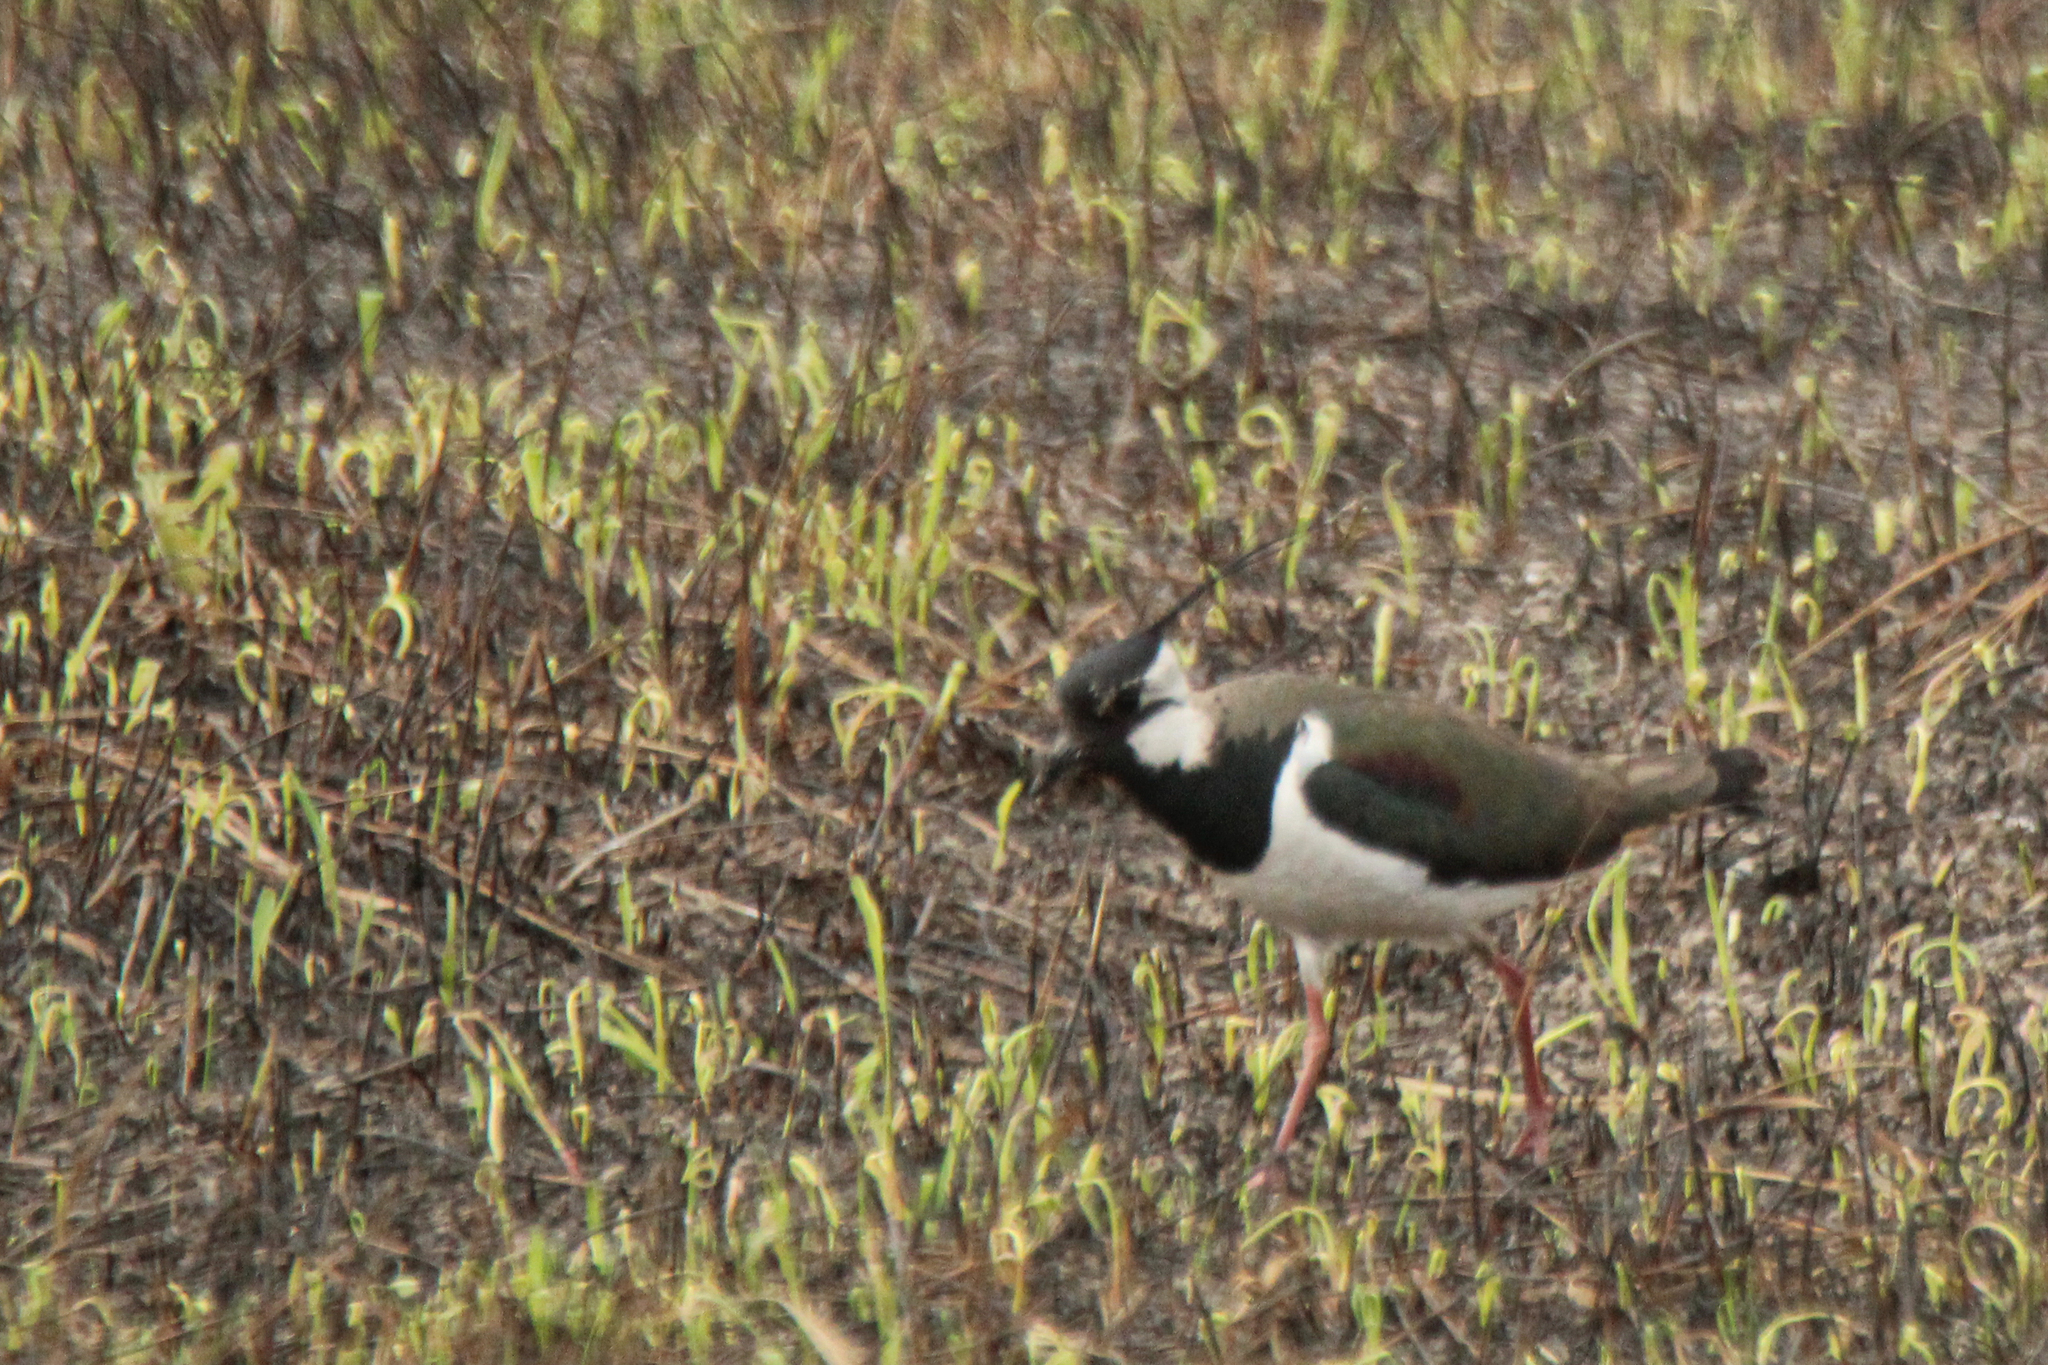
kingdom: Animalia
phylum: Chordata
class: Aves
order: Charadriiformes
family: Charadriidae
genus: Vanellus
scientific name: Vanellus vanellus
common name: Northern lapwing
